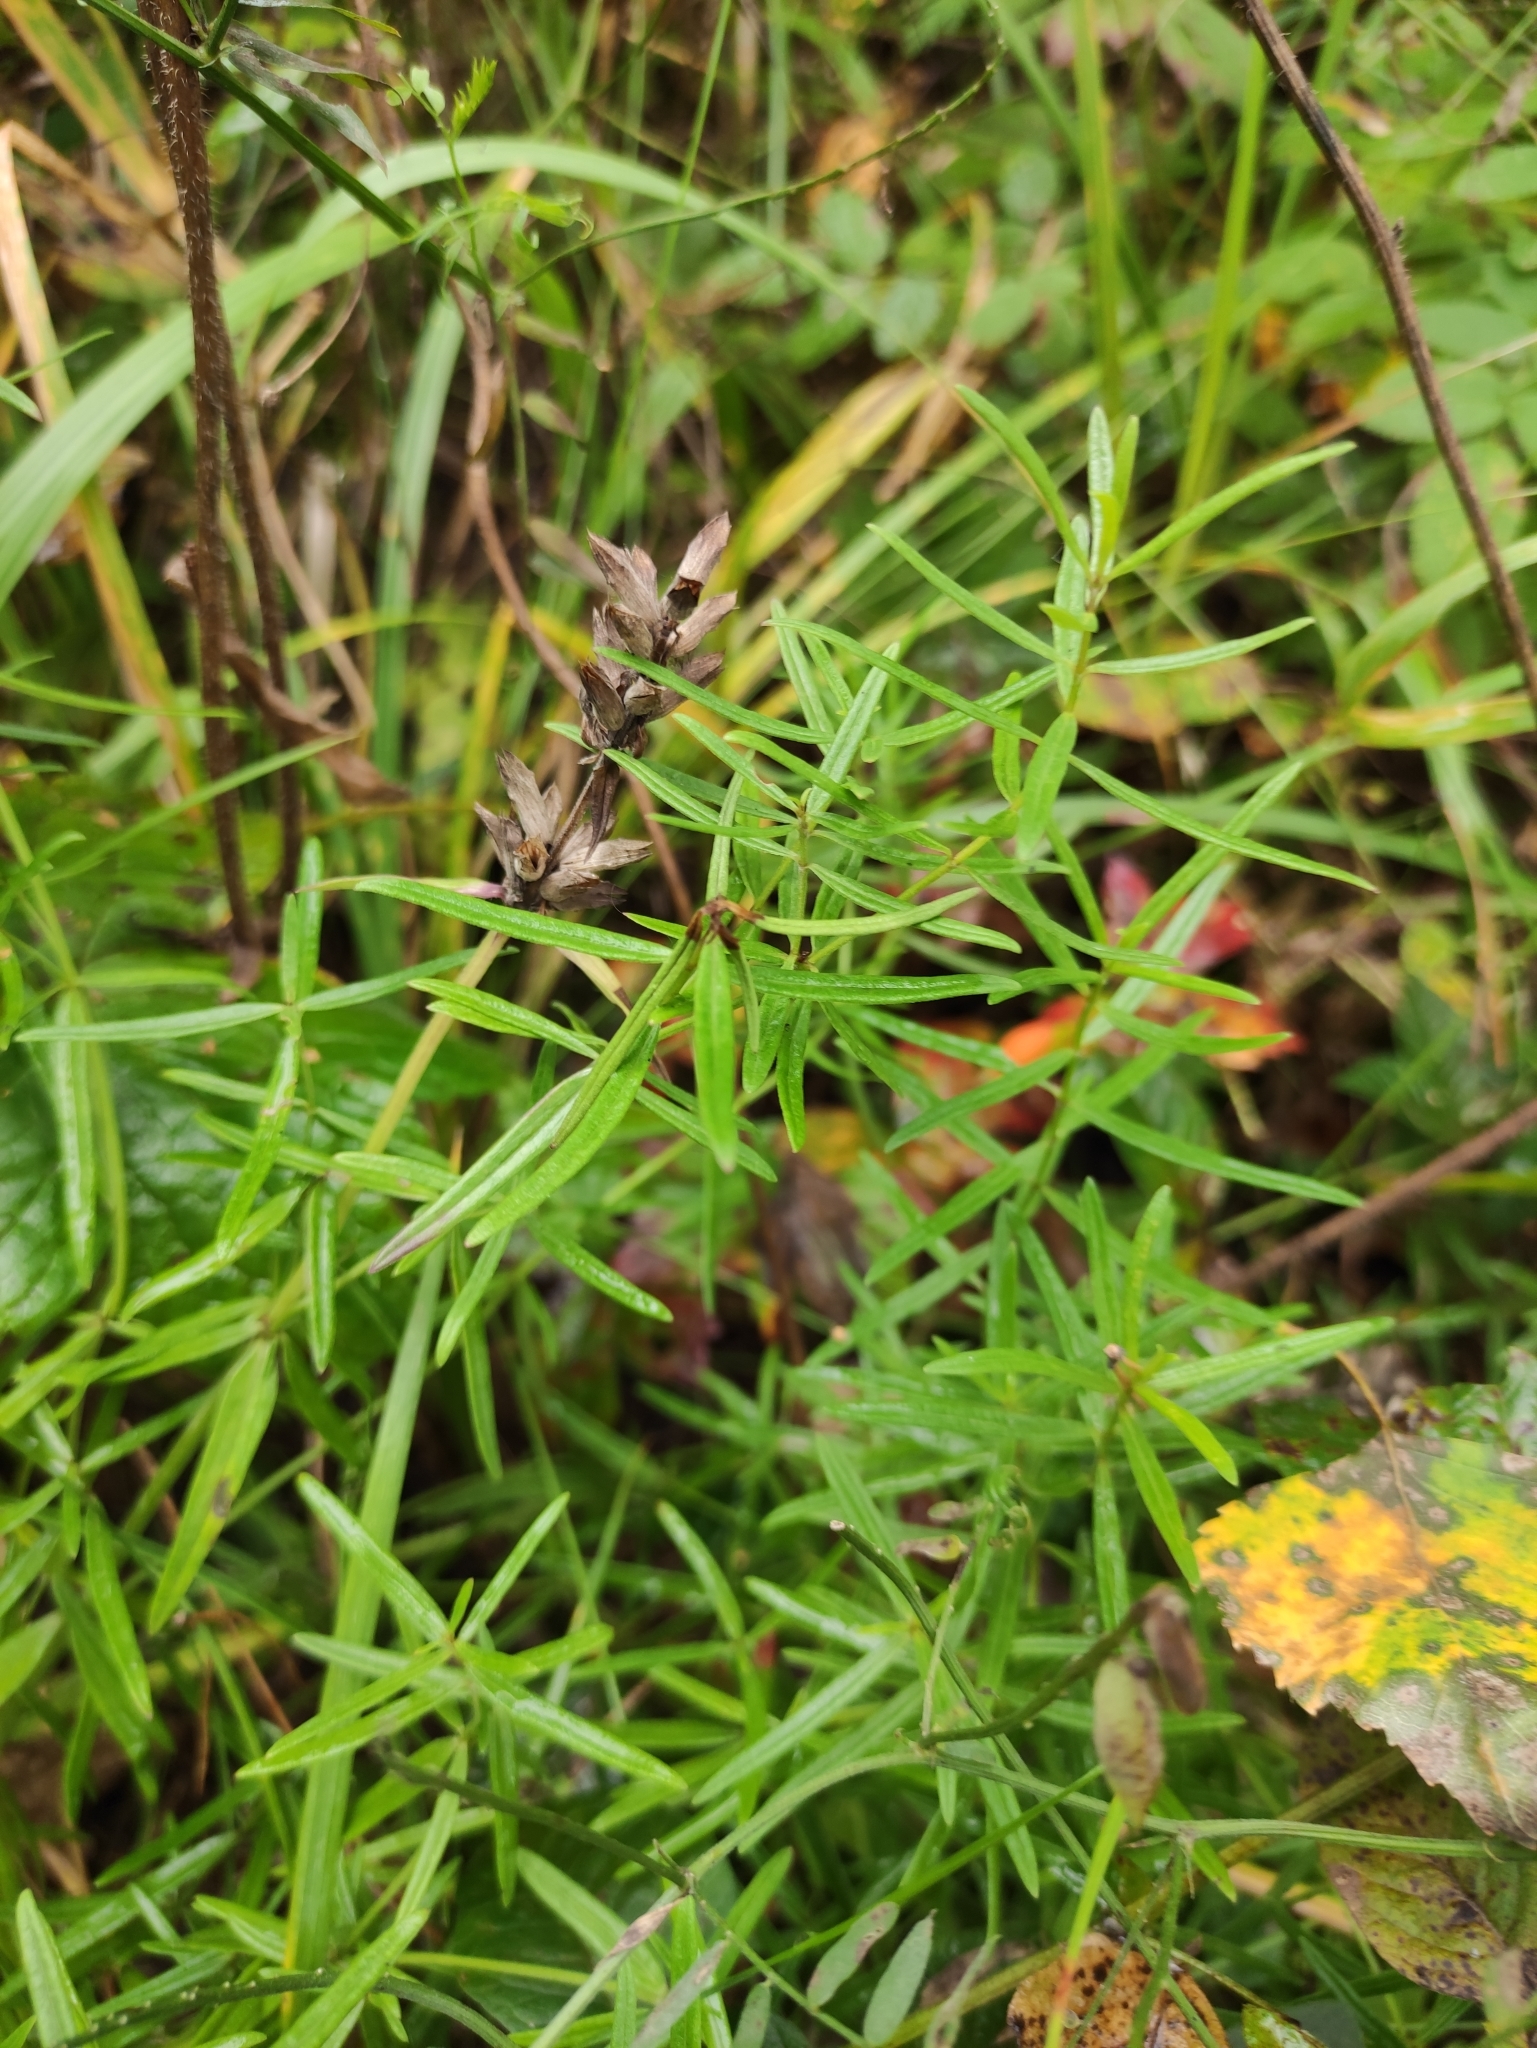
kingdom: Plantae
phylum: Tracheophyta
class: Magnoliopsida
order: Lamiales
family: Lamiaceae
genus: Dracocephalum
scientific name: Dracocephalum ruyschiana
